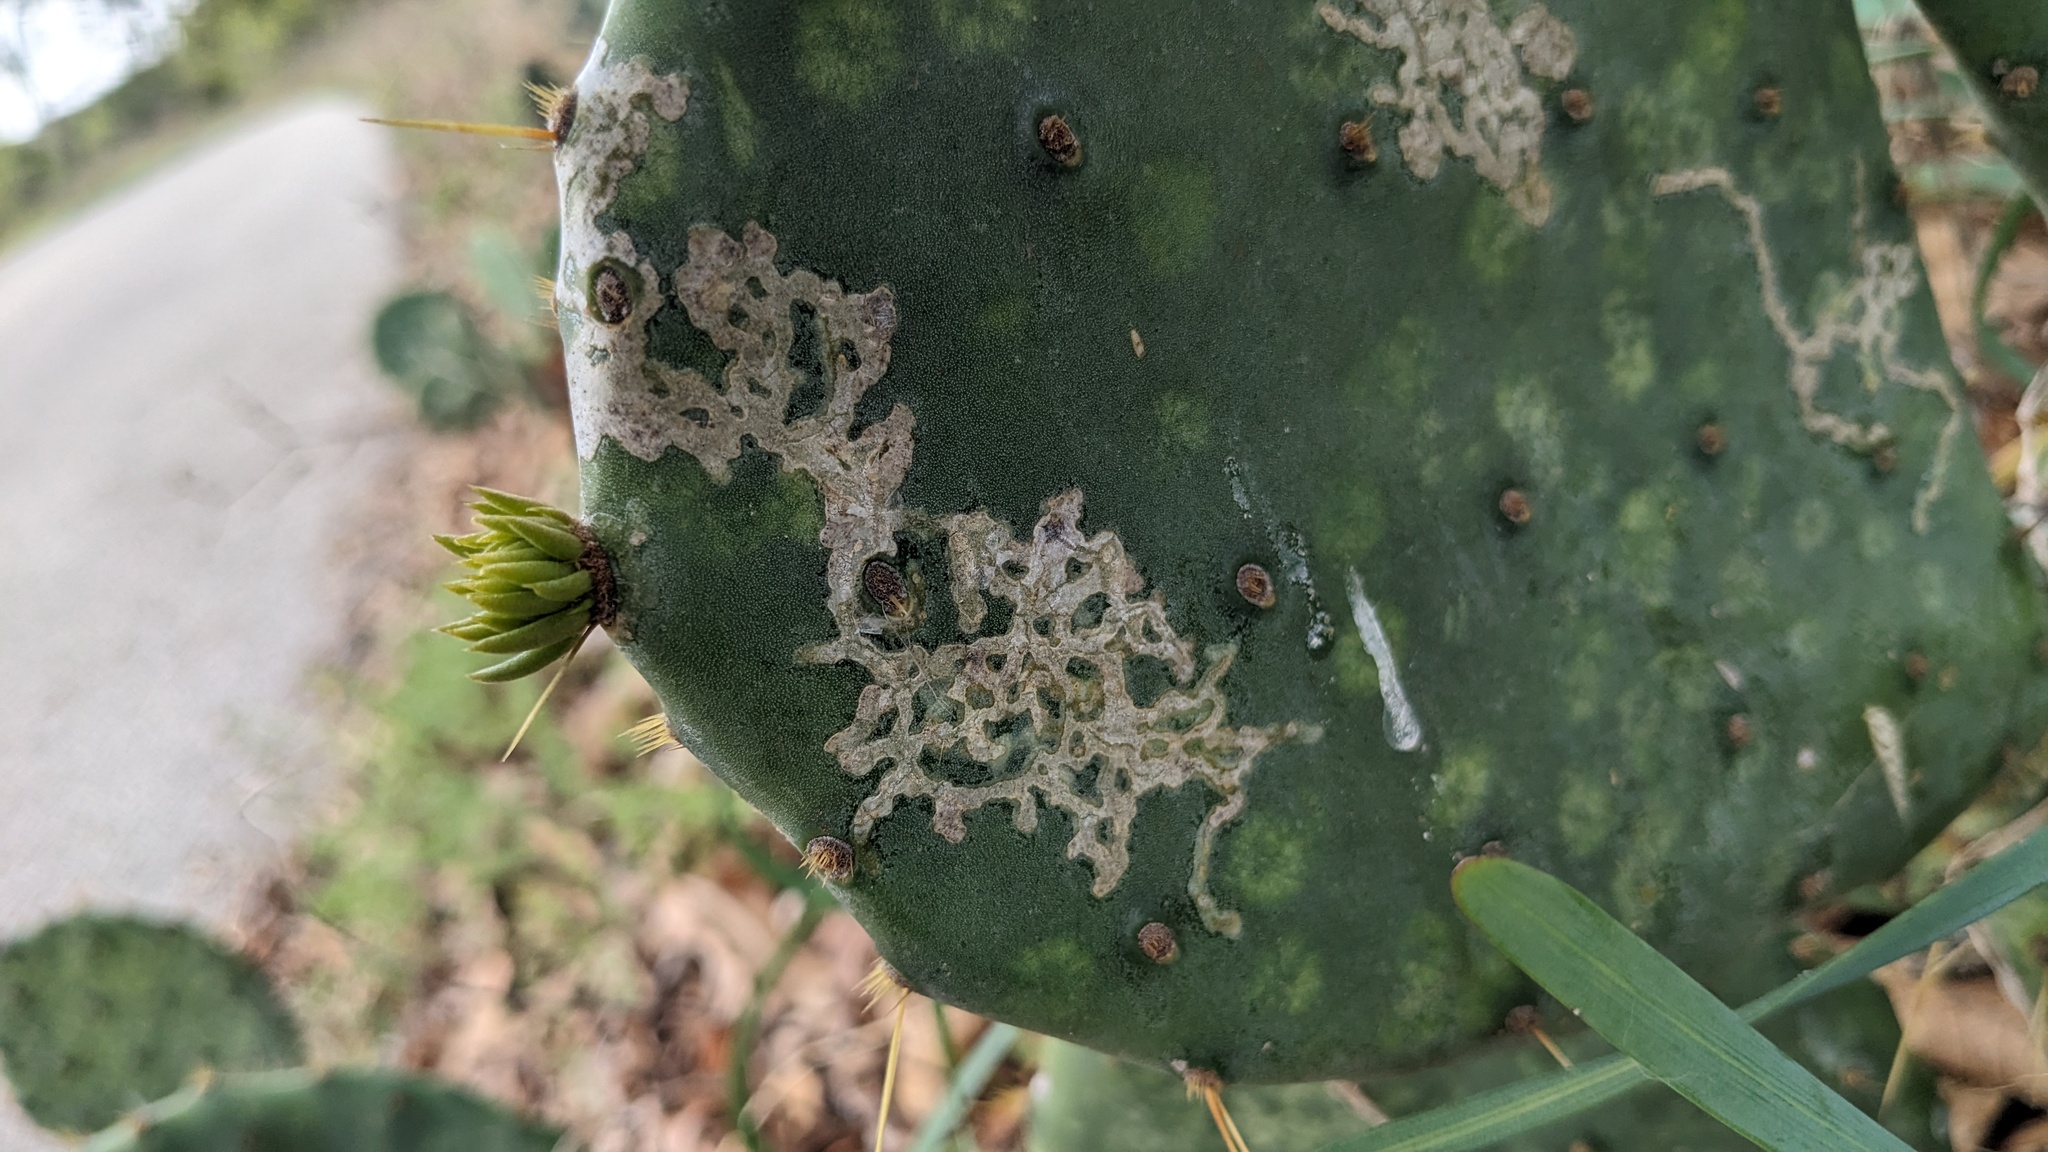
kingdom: Animalia
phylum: Arthropoda
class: Insecta
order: Lepidoptera
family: Gracillariidae
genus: Marmara
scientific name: Marmara opuntiella
